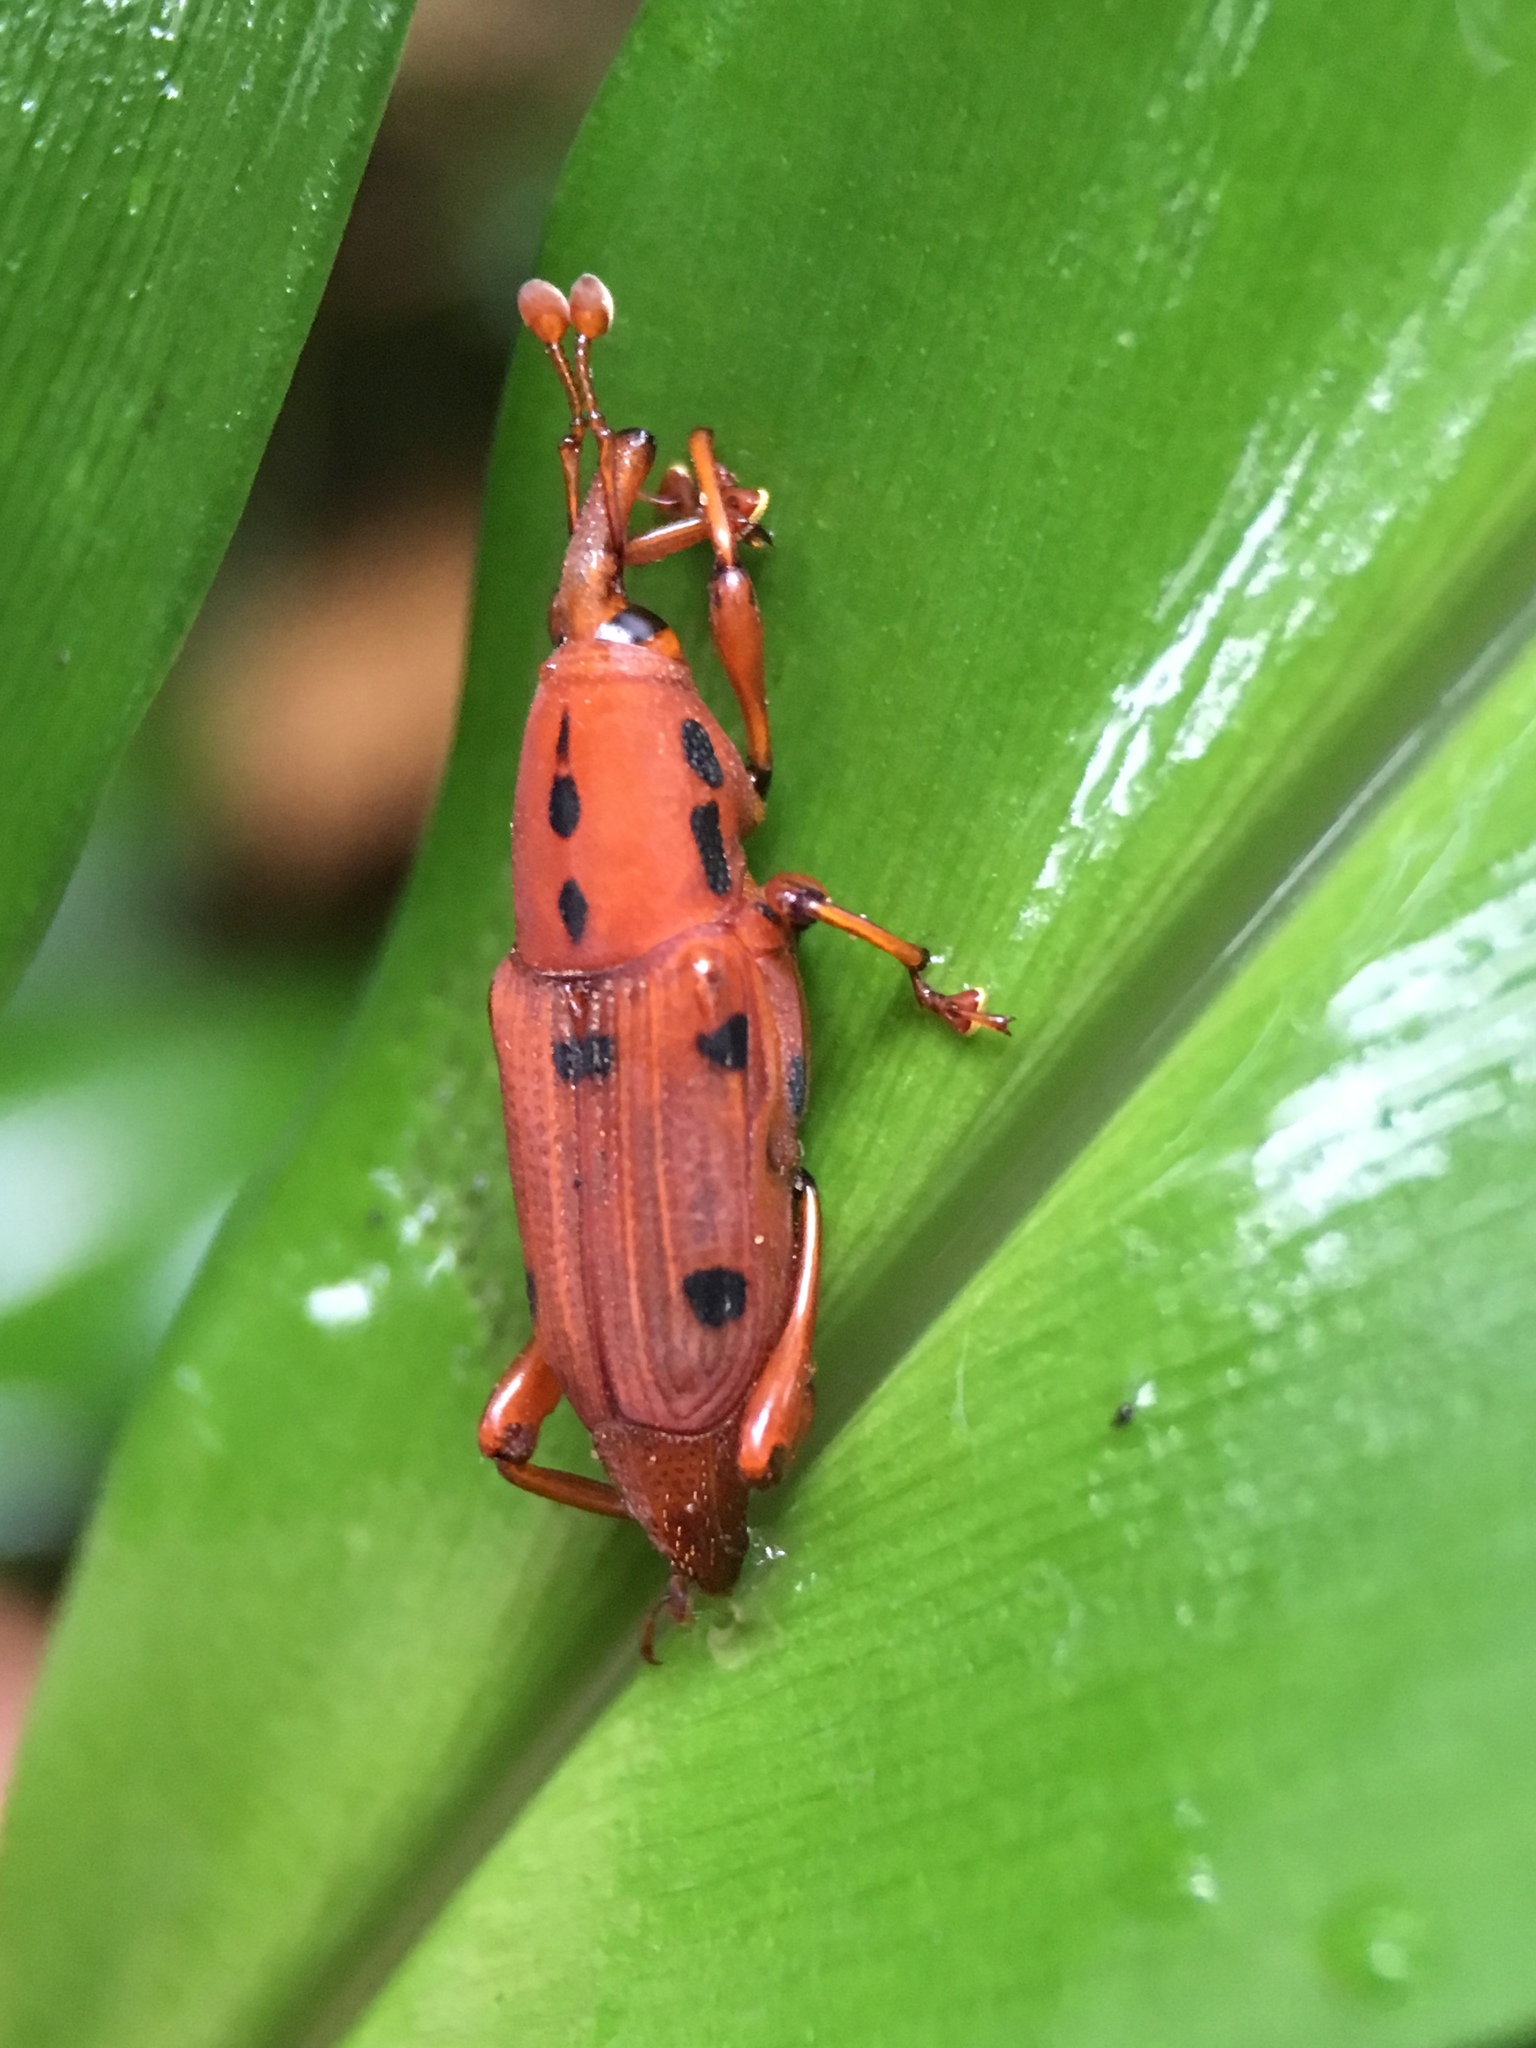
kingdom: Animalia
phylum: Arthropoda
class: Insecta
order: Coleoptera
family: Dryophthoridae
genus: Sphenocorynes
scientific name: Sphenocorynes
